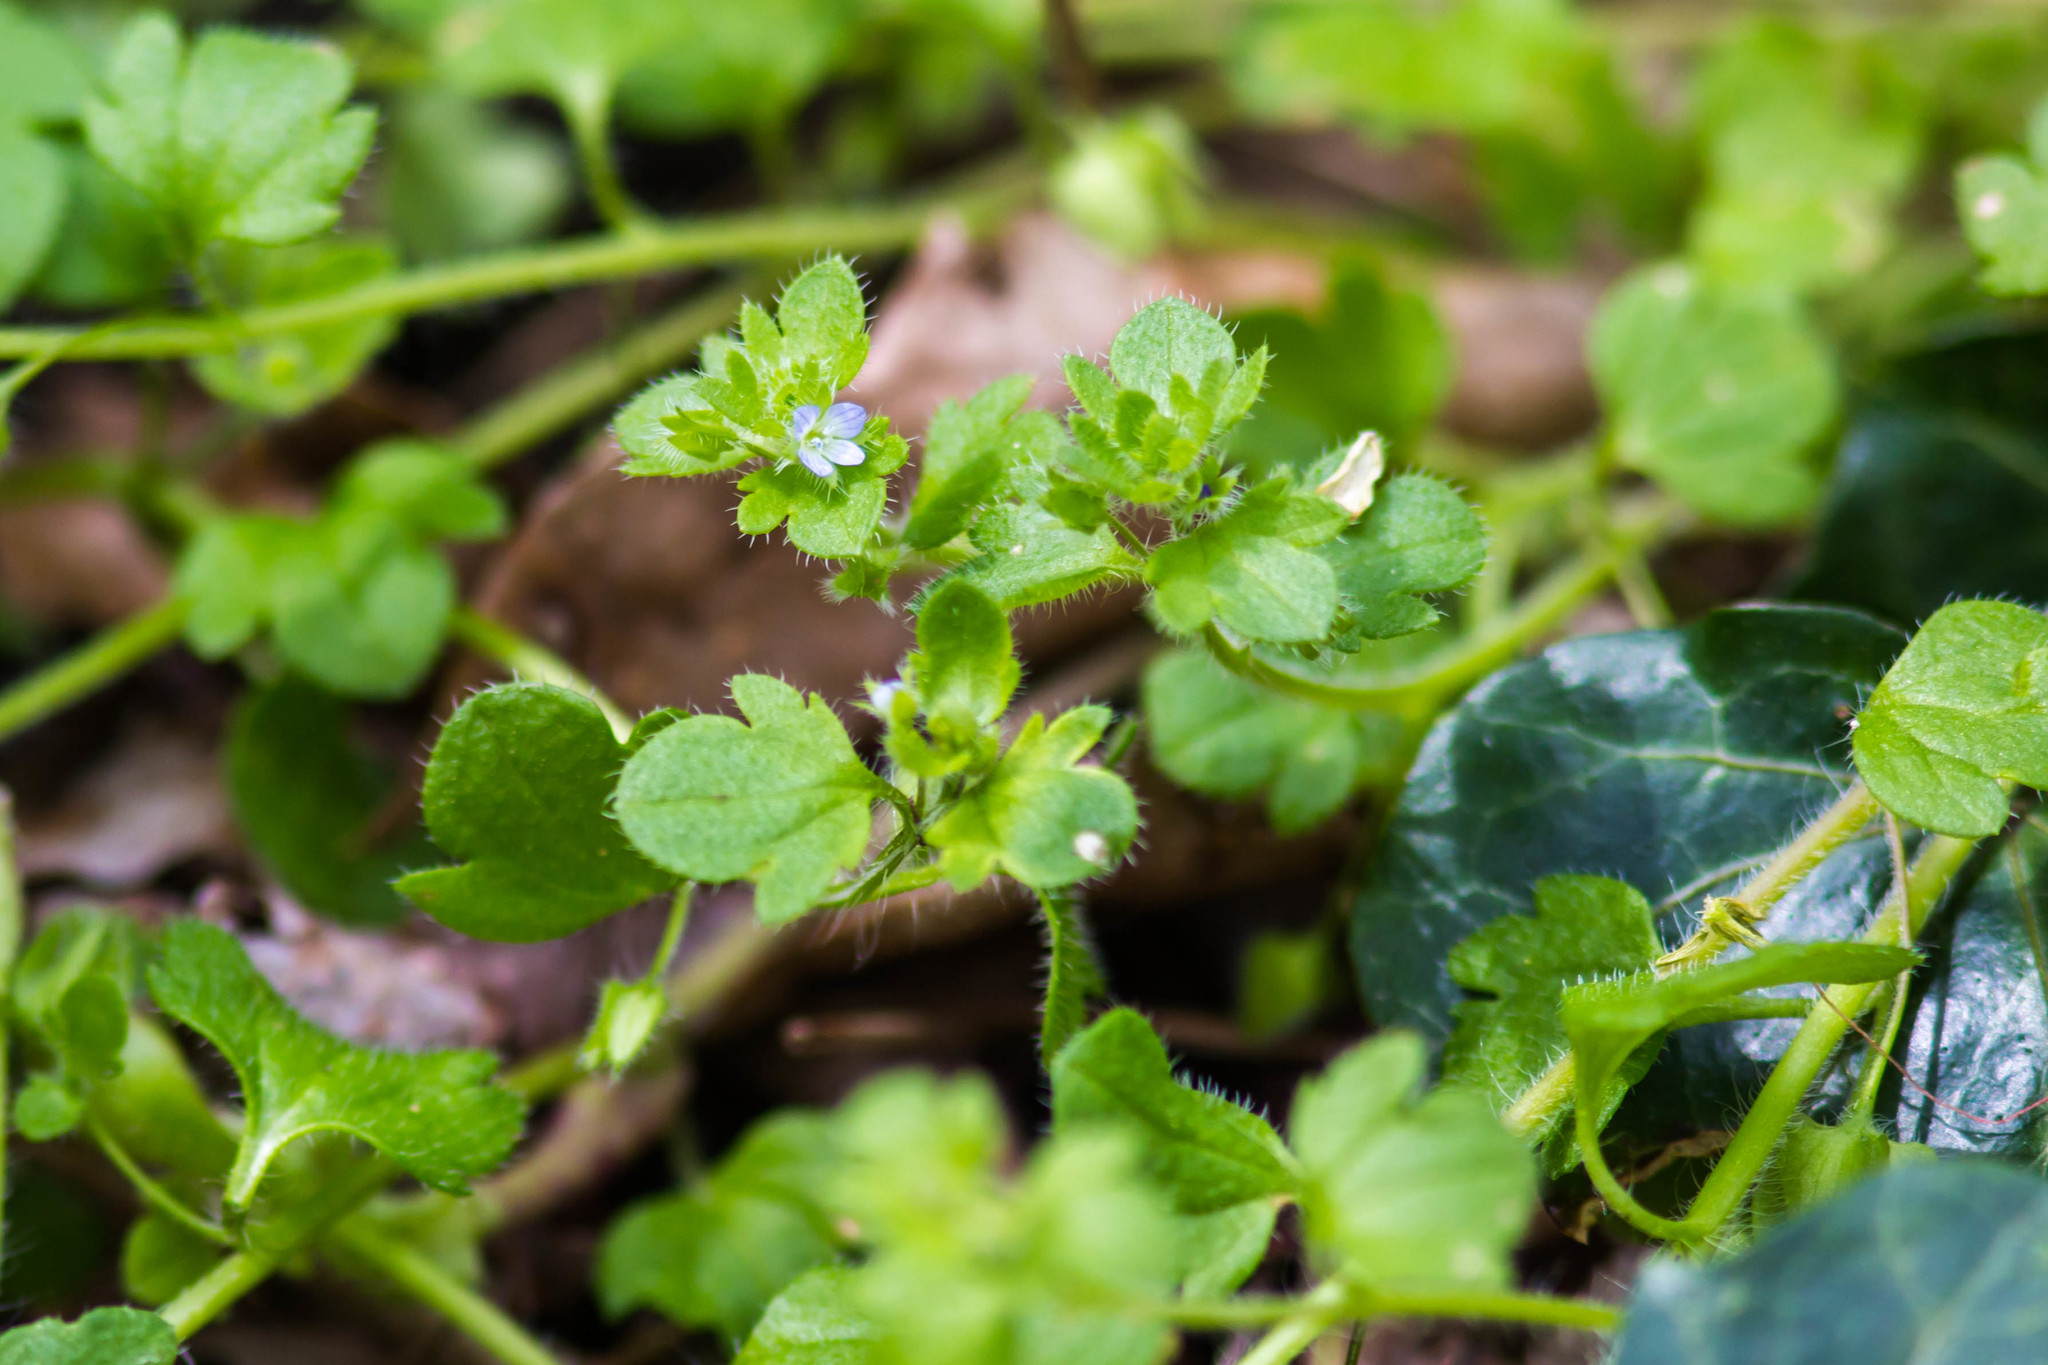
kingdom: Plantae
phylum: Tracheophyta
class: Magnoliopsida
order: Lamiales
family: Plantaginaceae
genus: Veronica
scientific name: Veronica hederifolia
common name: Ivy-leaved speedwell
